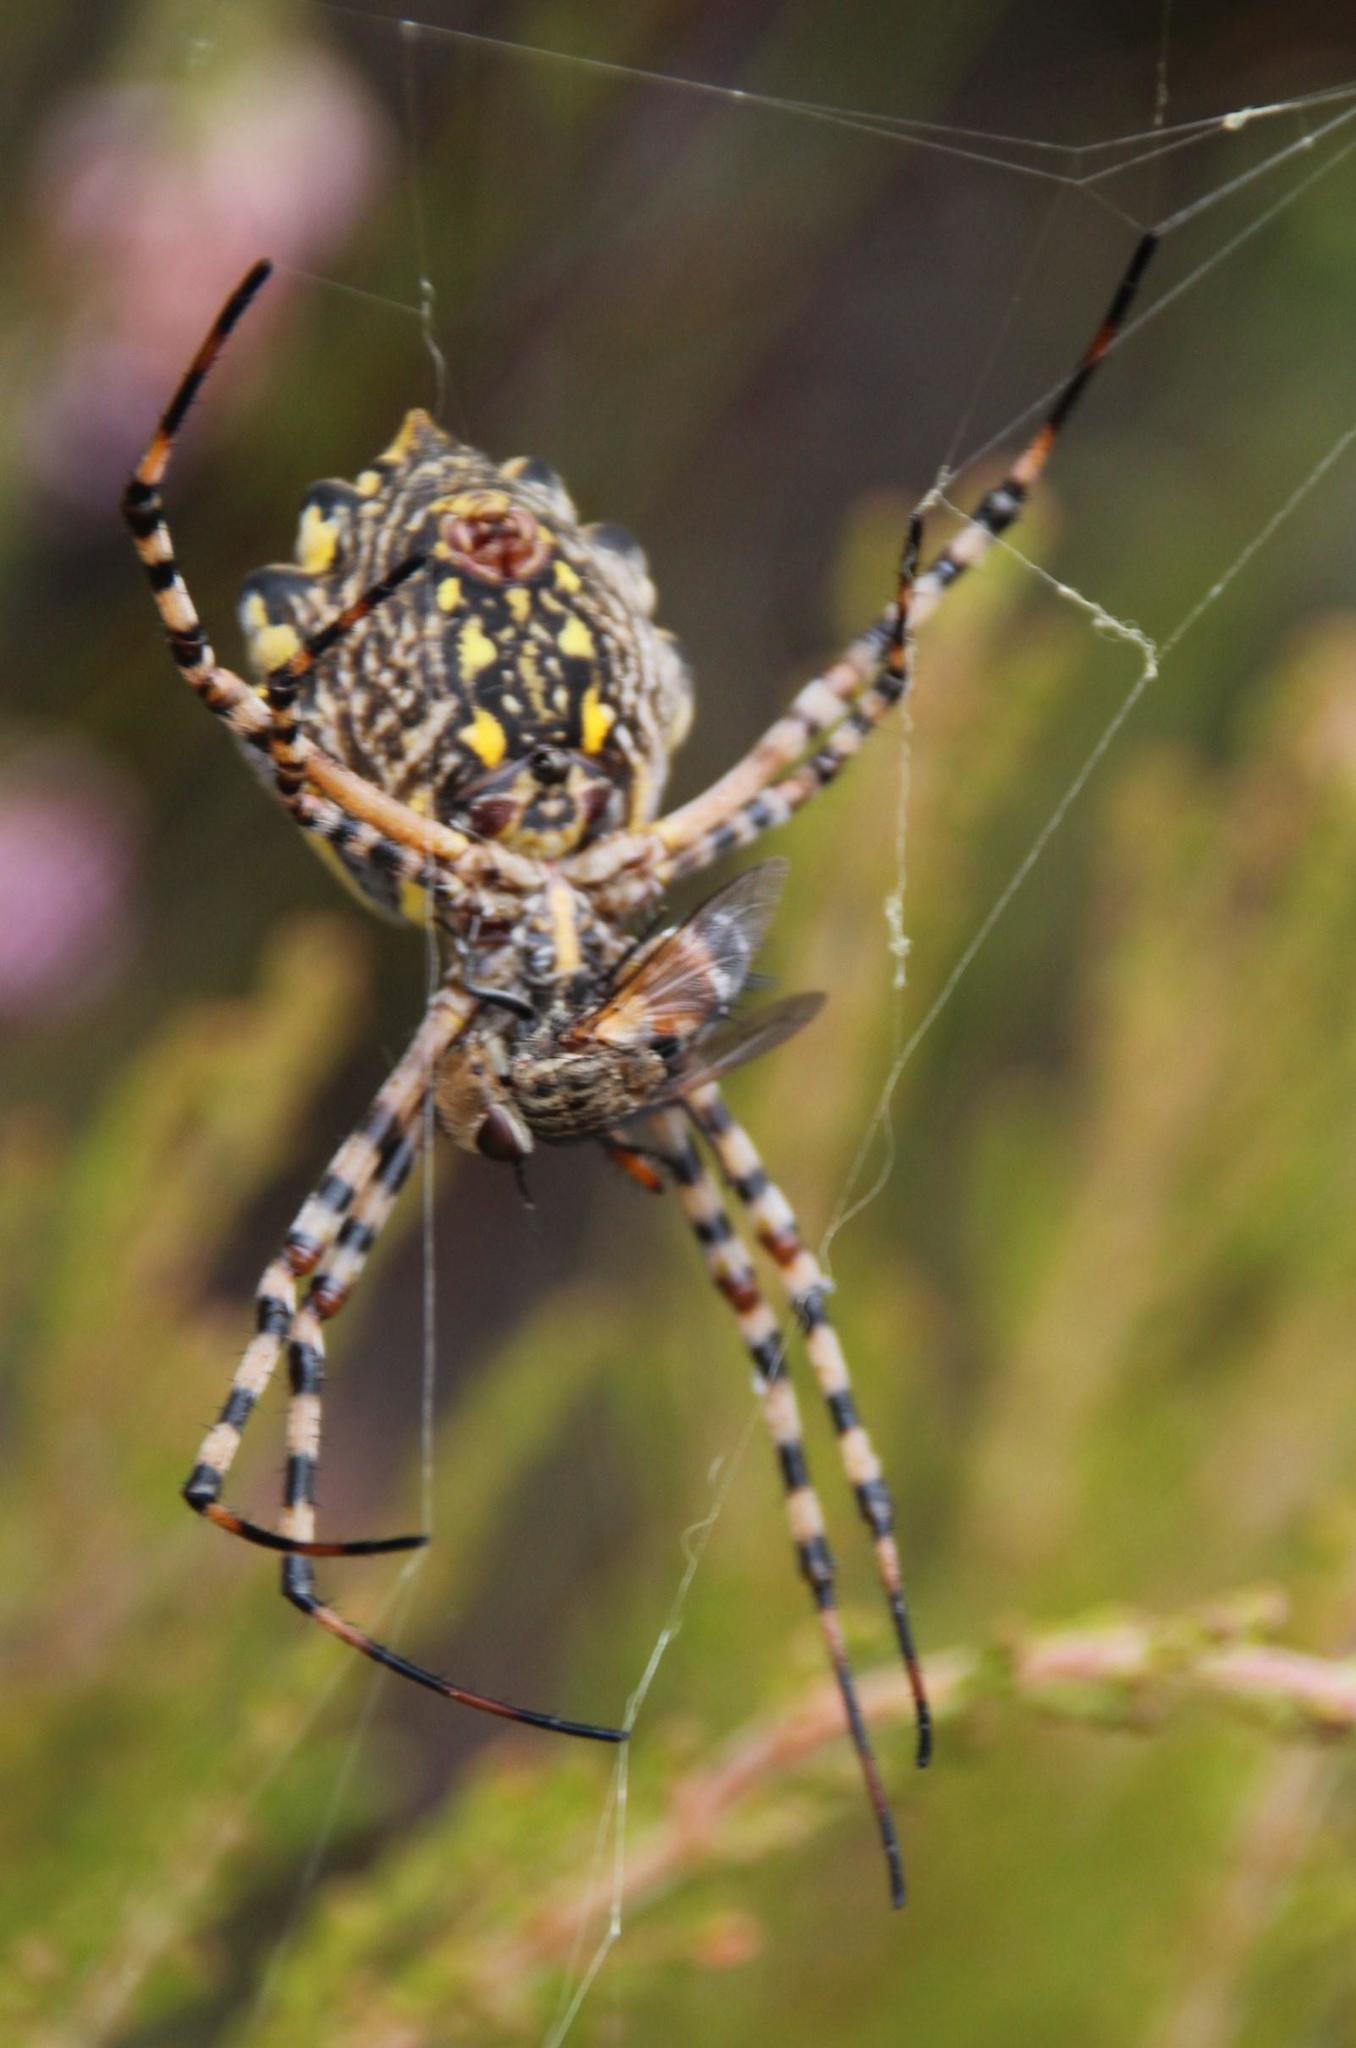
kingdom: Animalia
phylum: Arthropoda
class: Arachnida
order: Araneae
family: Araneidae
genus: Argiope
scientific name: Argiope australis
